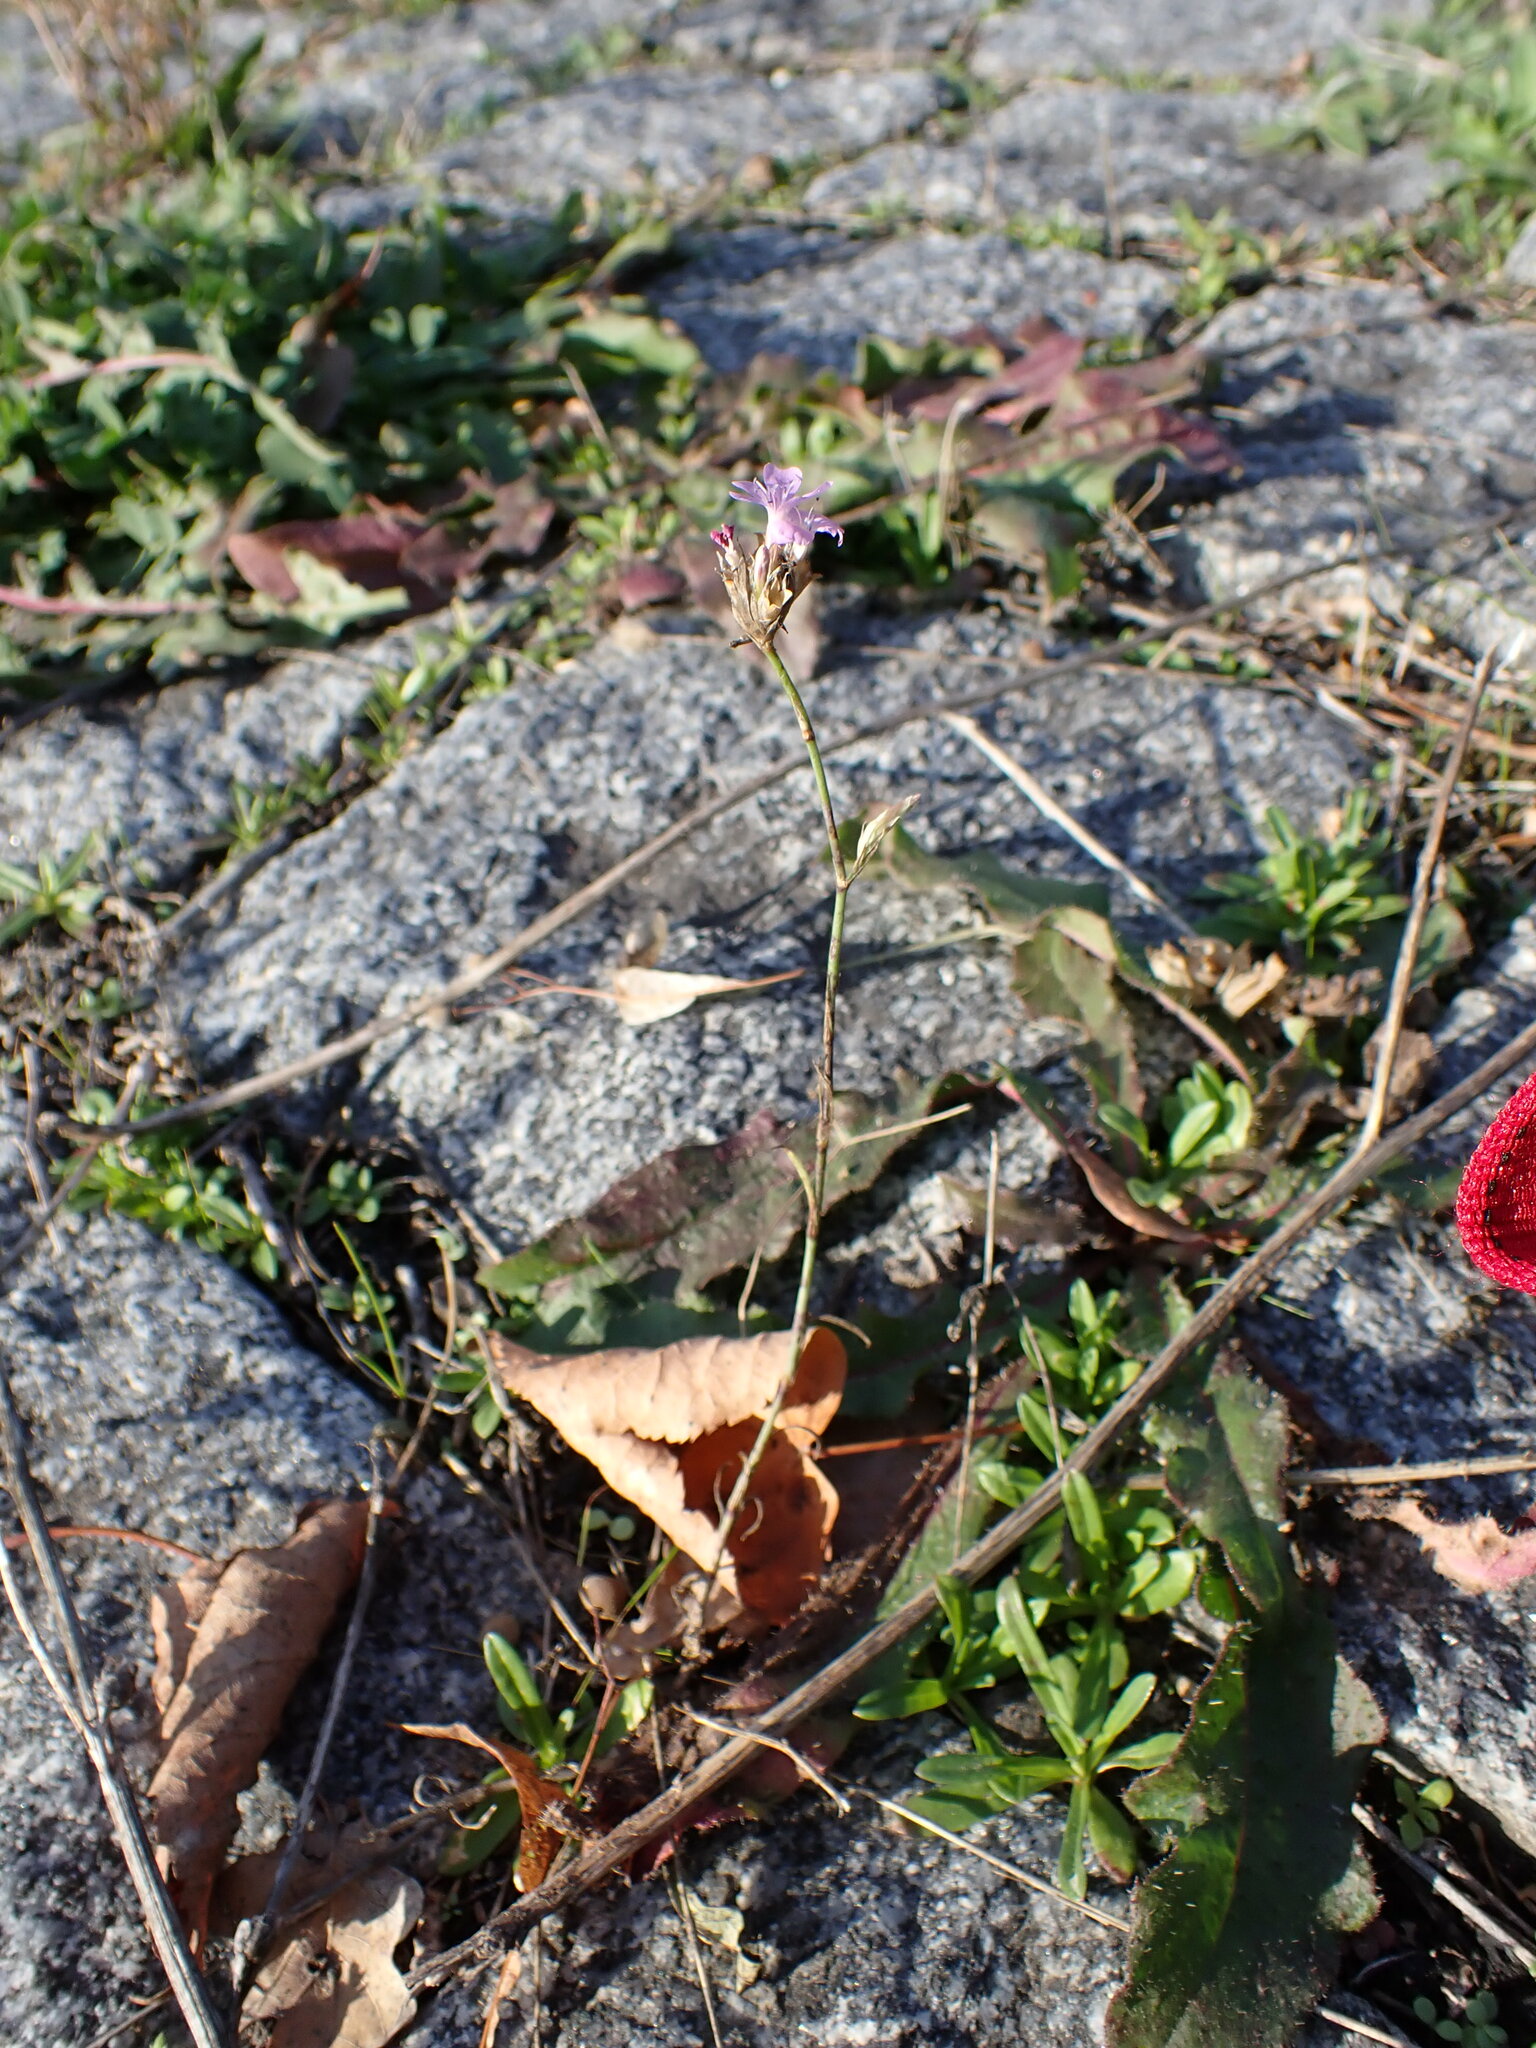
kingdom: Plantae
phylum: Tracheophyta
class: Magnoliopsida
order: Caryophyllales
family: Caryophyllaceae
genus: Petrorhagia
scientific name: Petrorhagia prolifera
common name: Proliferous pink
